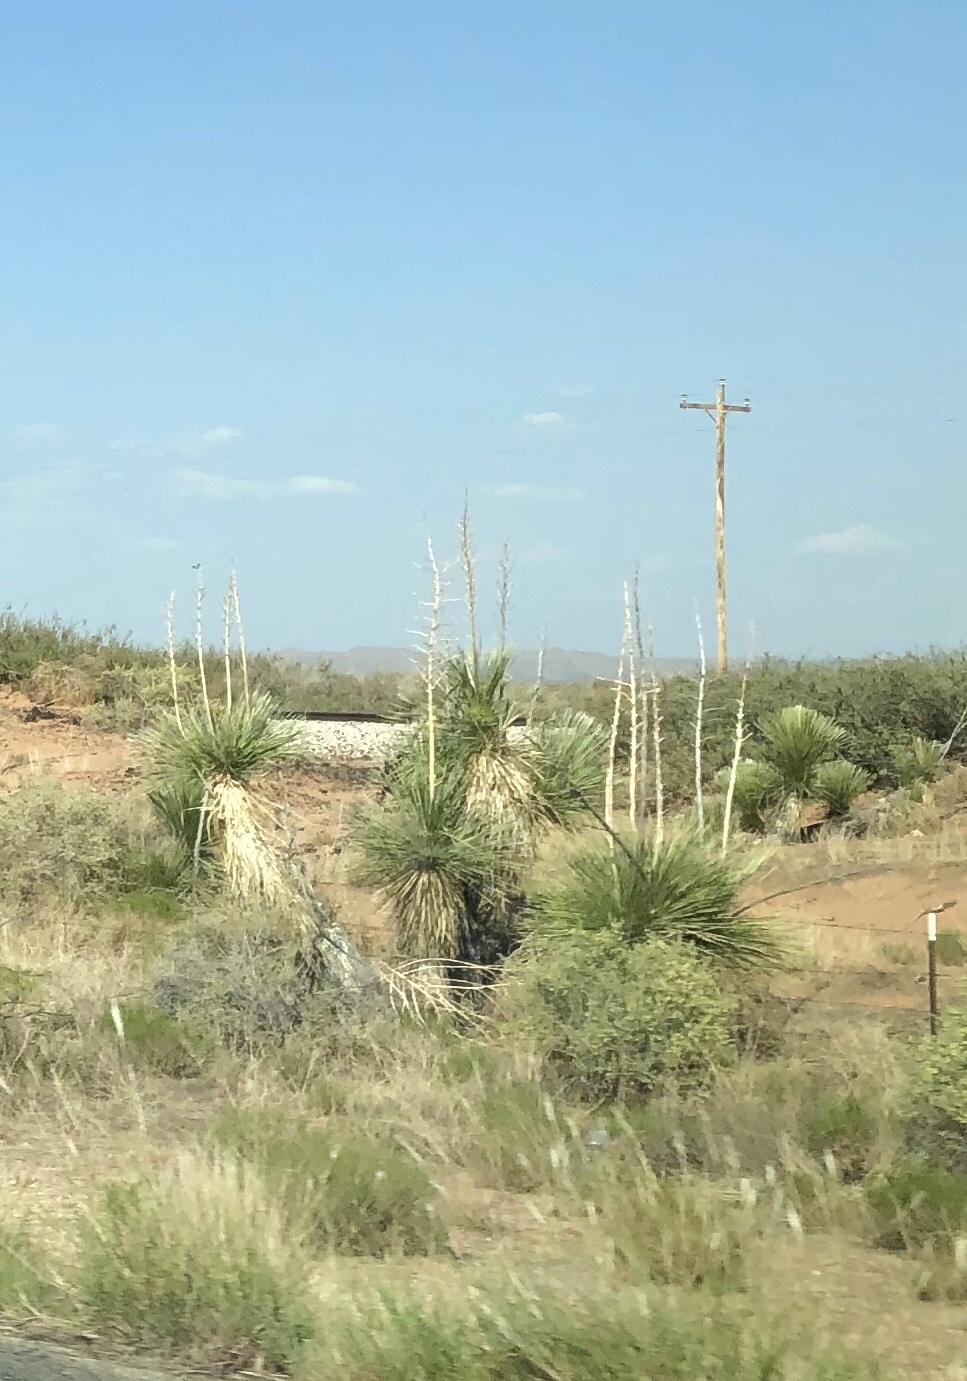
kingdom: Plantae
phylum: Tracheophyta
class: Liliopsida
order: Asparagales
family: Asparagaceae
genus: Yucca
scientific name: Yucca elata
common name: Palmella
